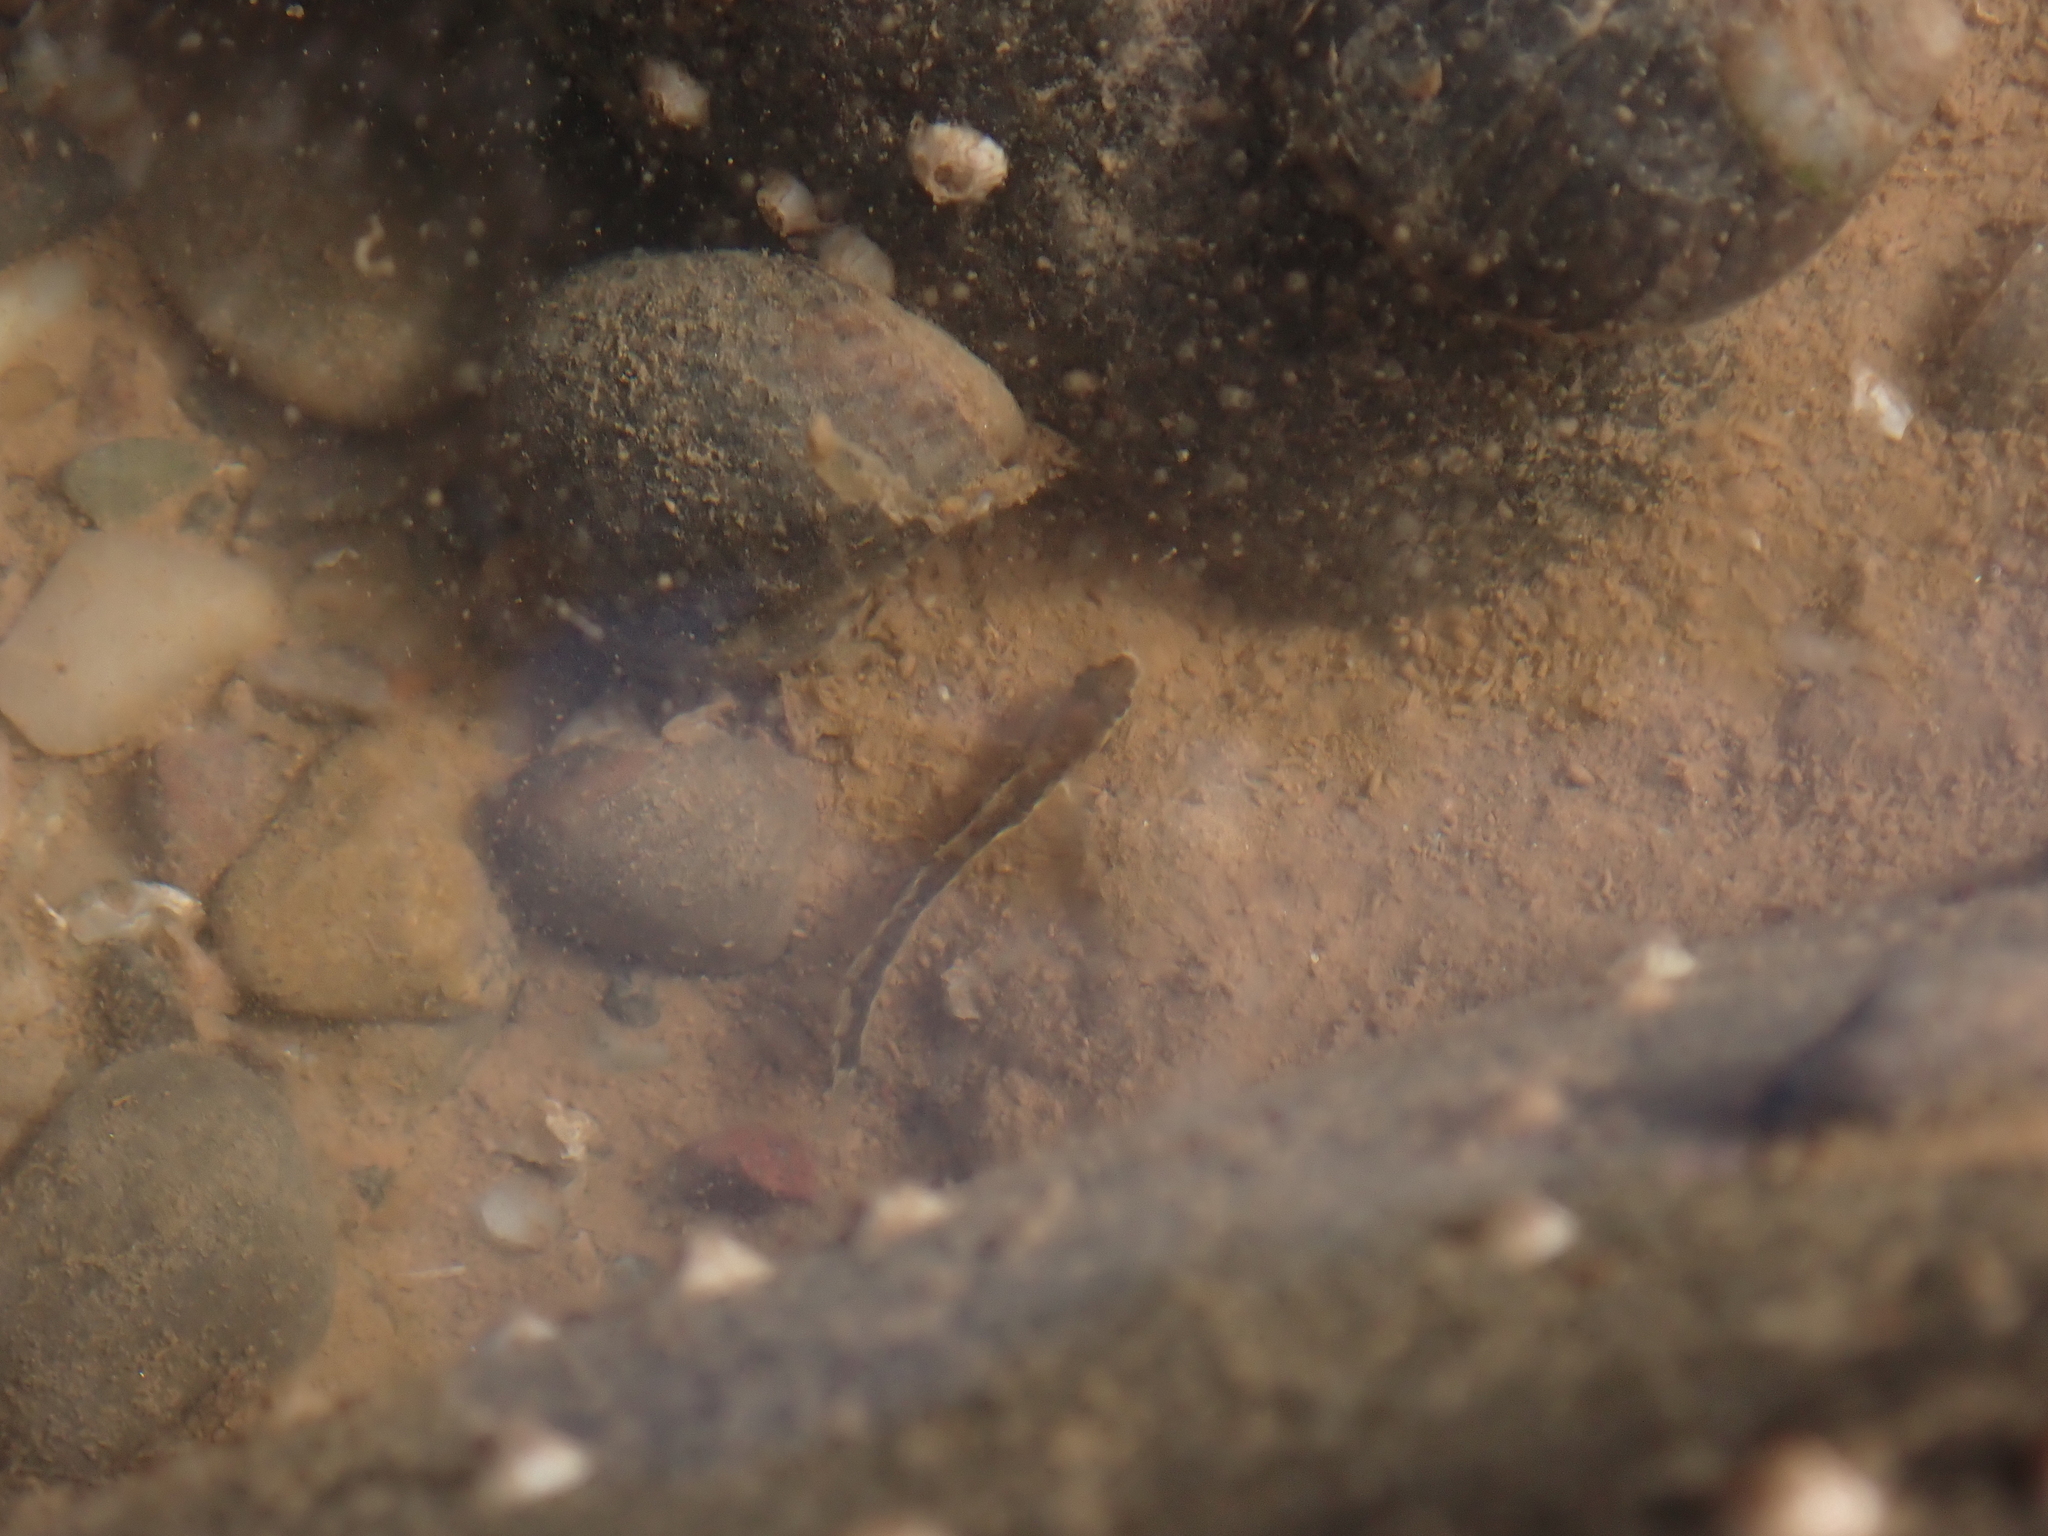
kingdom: Animalia
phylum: Chordata
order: Perciformes
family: Stichaeidae
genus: Ulvaria
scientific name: Ulvaria subbifurcata
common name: Radiated shanny
